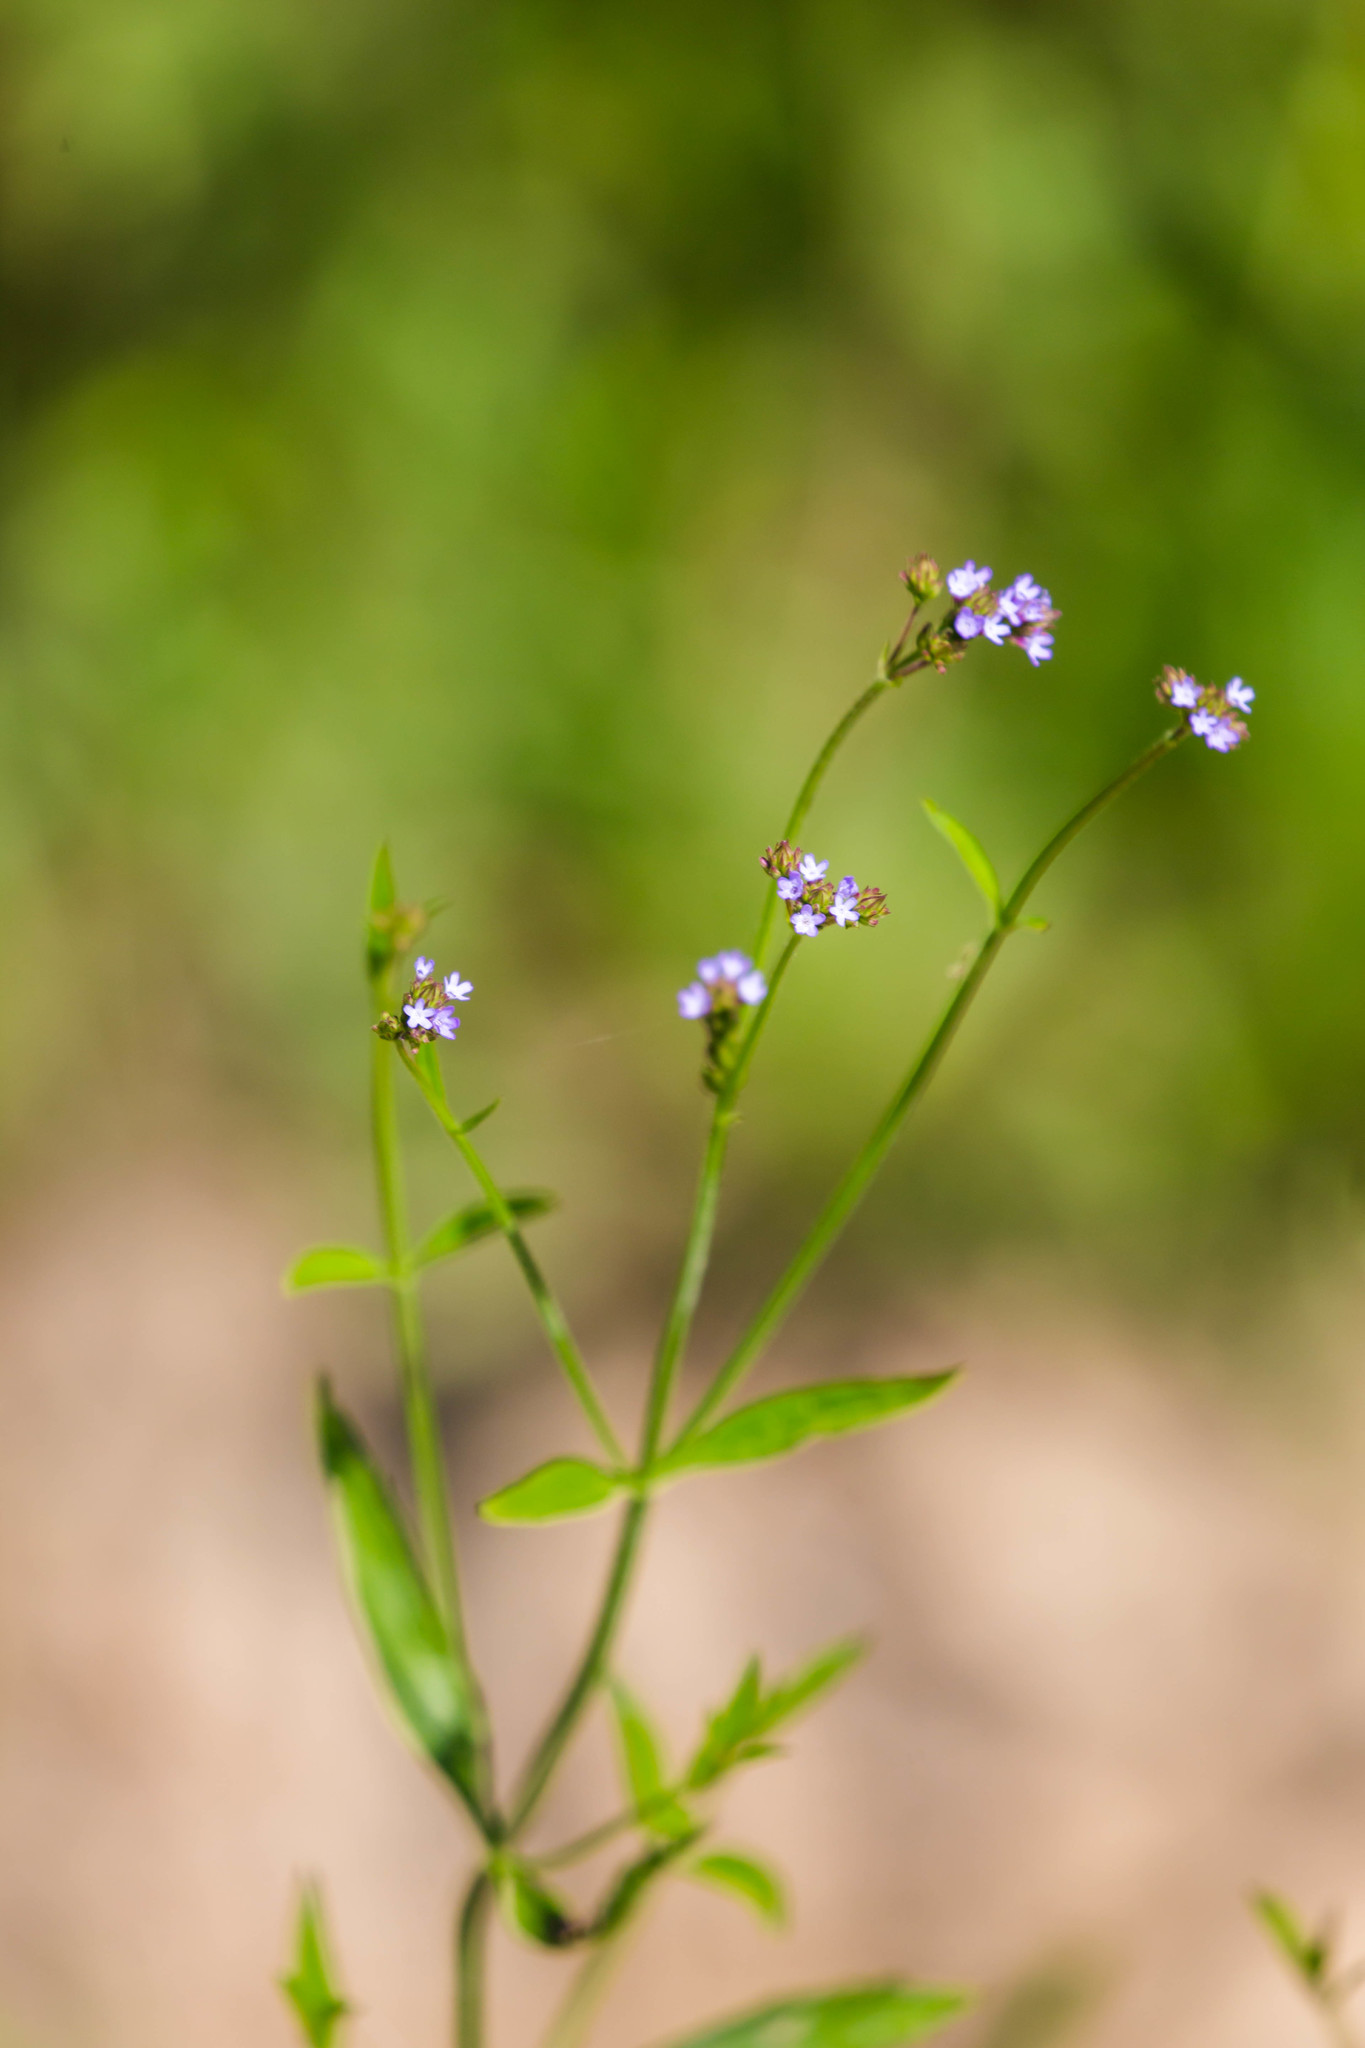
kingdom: Plantae
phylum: Tracheophyta
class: Magnoliopsida
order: Lamiales
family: Verbenaceae
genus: Verbena
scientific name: Verbena brasiliensis
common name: Brazilian vervain
